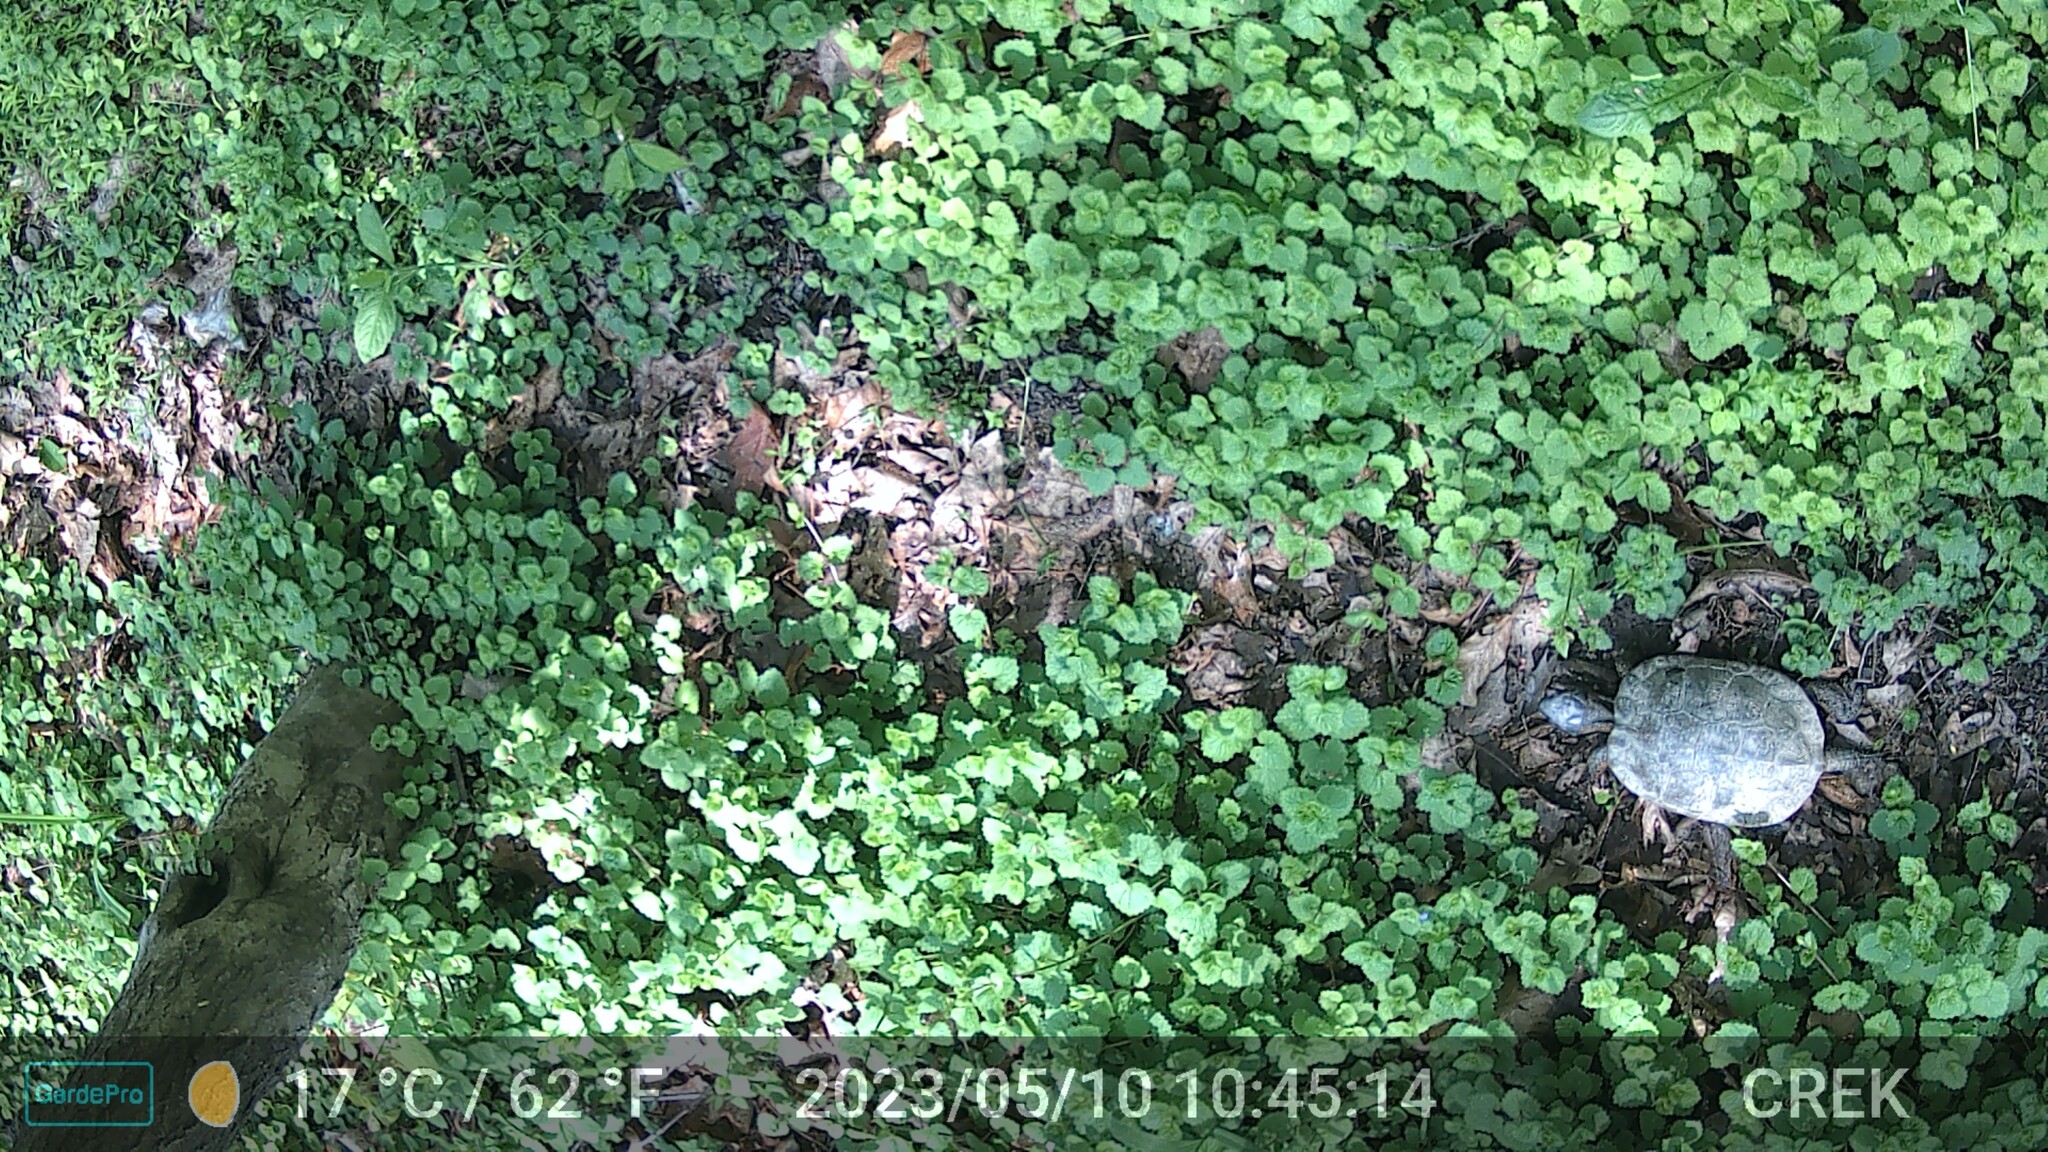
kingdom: Animalia
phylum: Chordata
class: Testudines
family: Emydidae
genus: Glyptemys
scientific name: Glyptemys insculpta
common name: Wood turtle
